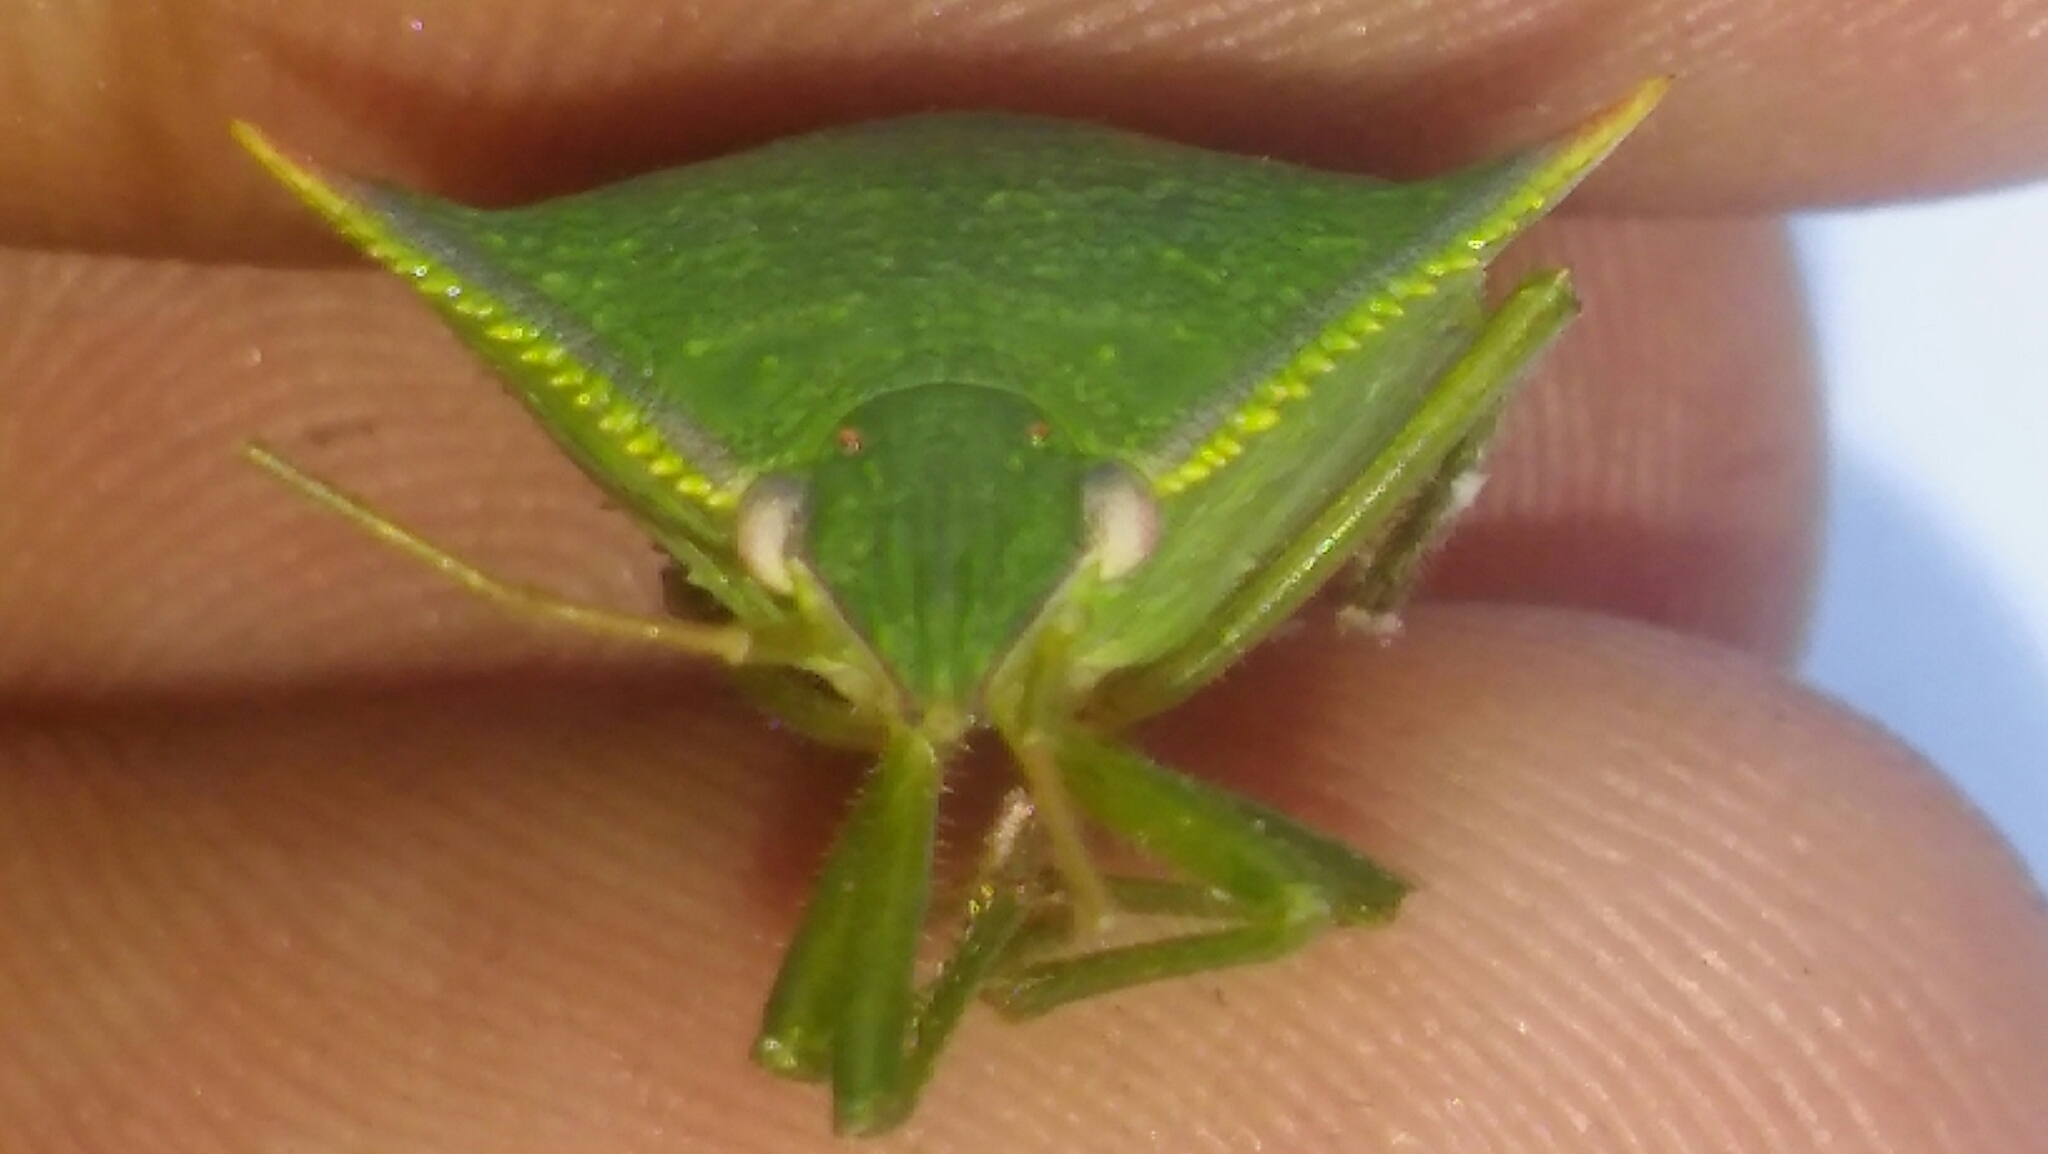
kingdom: Animalia
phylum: Arthropoda
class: Insecta
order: Hemiptera
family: Pentatomidae
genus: Loxa
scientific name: Loxa deducta
